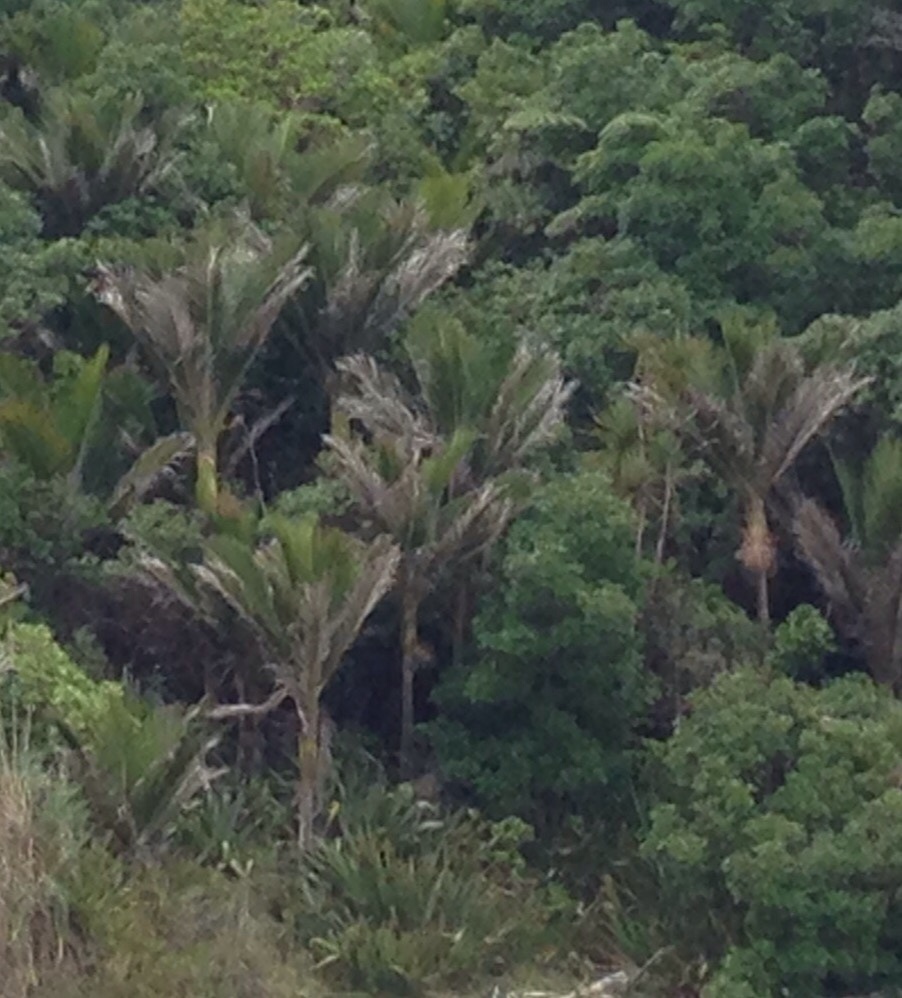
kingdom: Plantae
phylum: Tracheophyta
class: Liliopsida
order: Arecales
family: Arecaceae
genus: Rhopalostylis
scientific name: Rhopalostylis sapida
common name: Feather-duster palm
